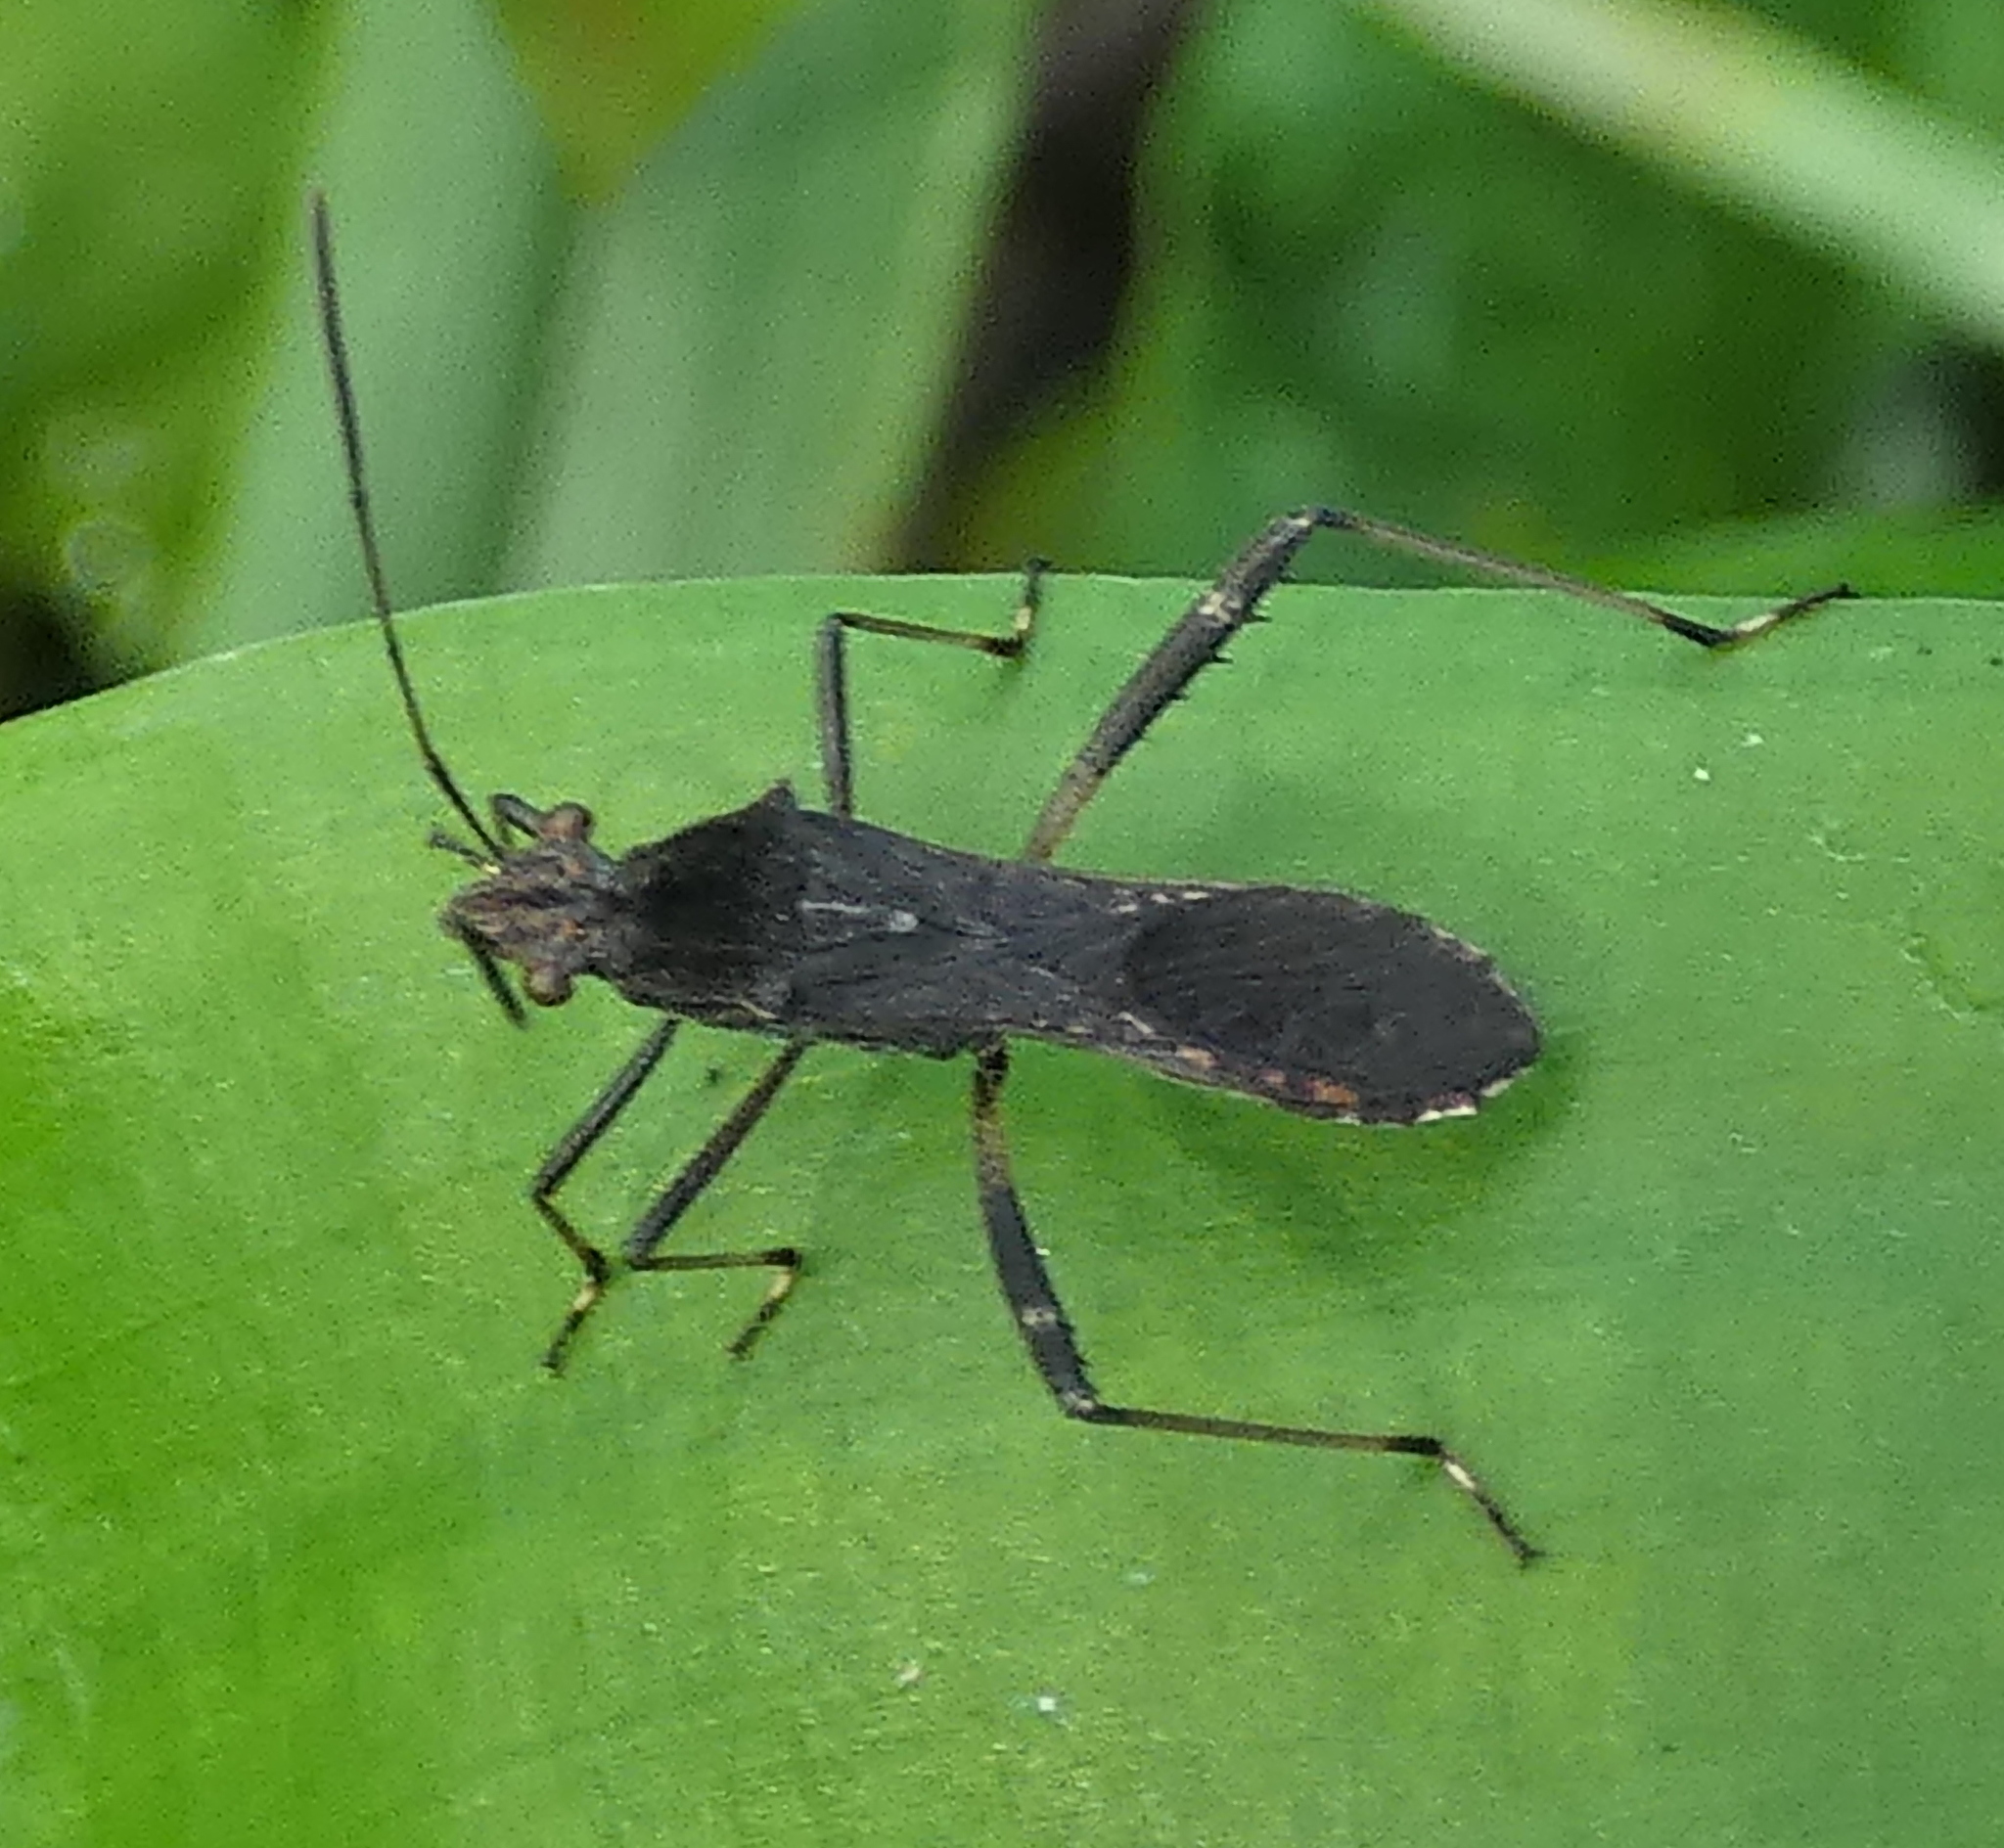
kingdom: Animalia
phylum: Arthropoda
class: Insecta
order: Hemiptera
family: Alydidae
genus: Neomegalotomus
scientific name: Neomegalotomus parvus
